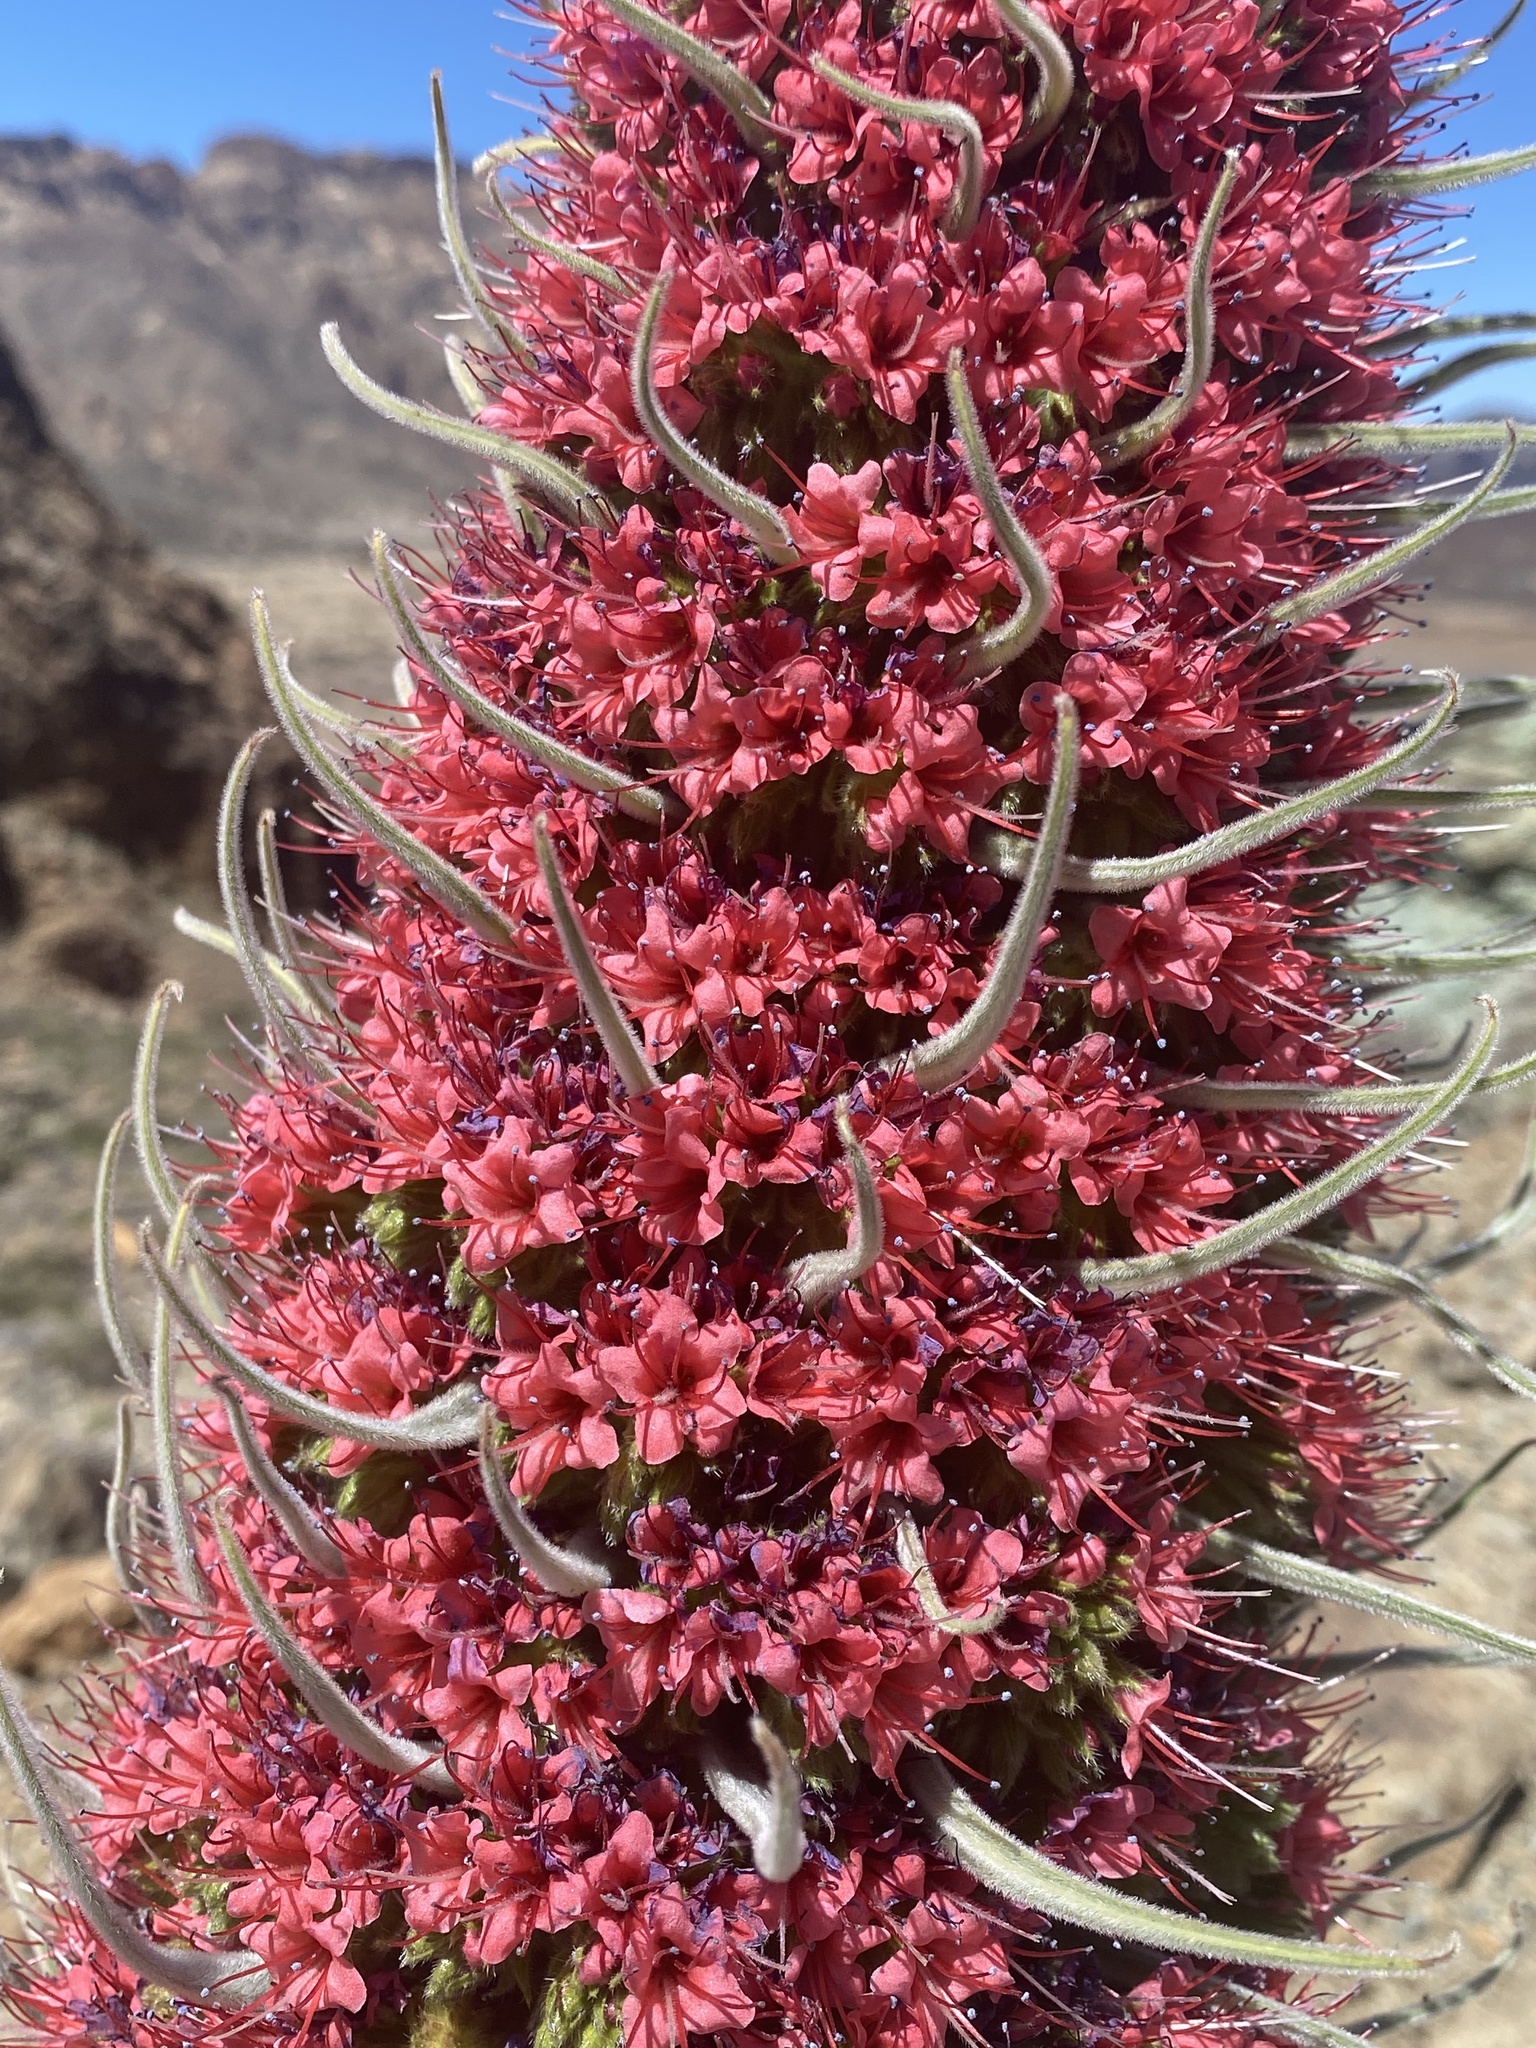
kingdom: Plantae
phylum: Tracheophyta
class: Magnoliopsida
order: Boraginales
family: Boraginaceae
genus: Echium
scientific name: Echium wildpretii
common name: Tower-of-jewels
